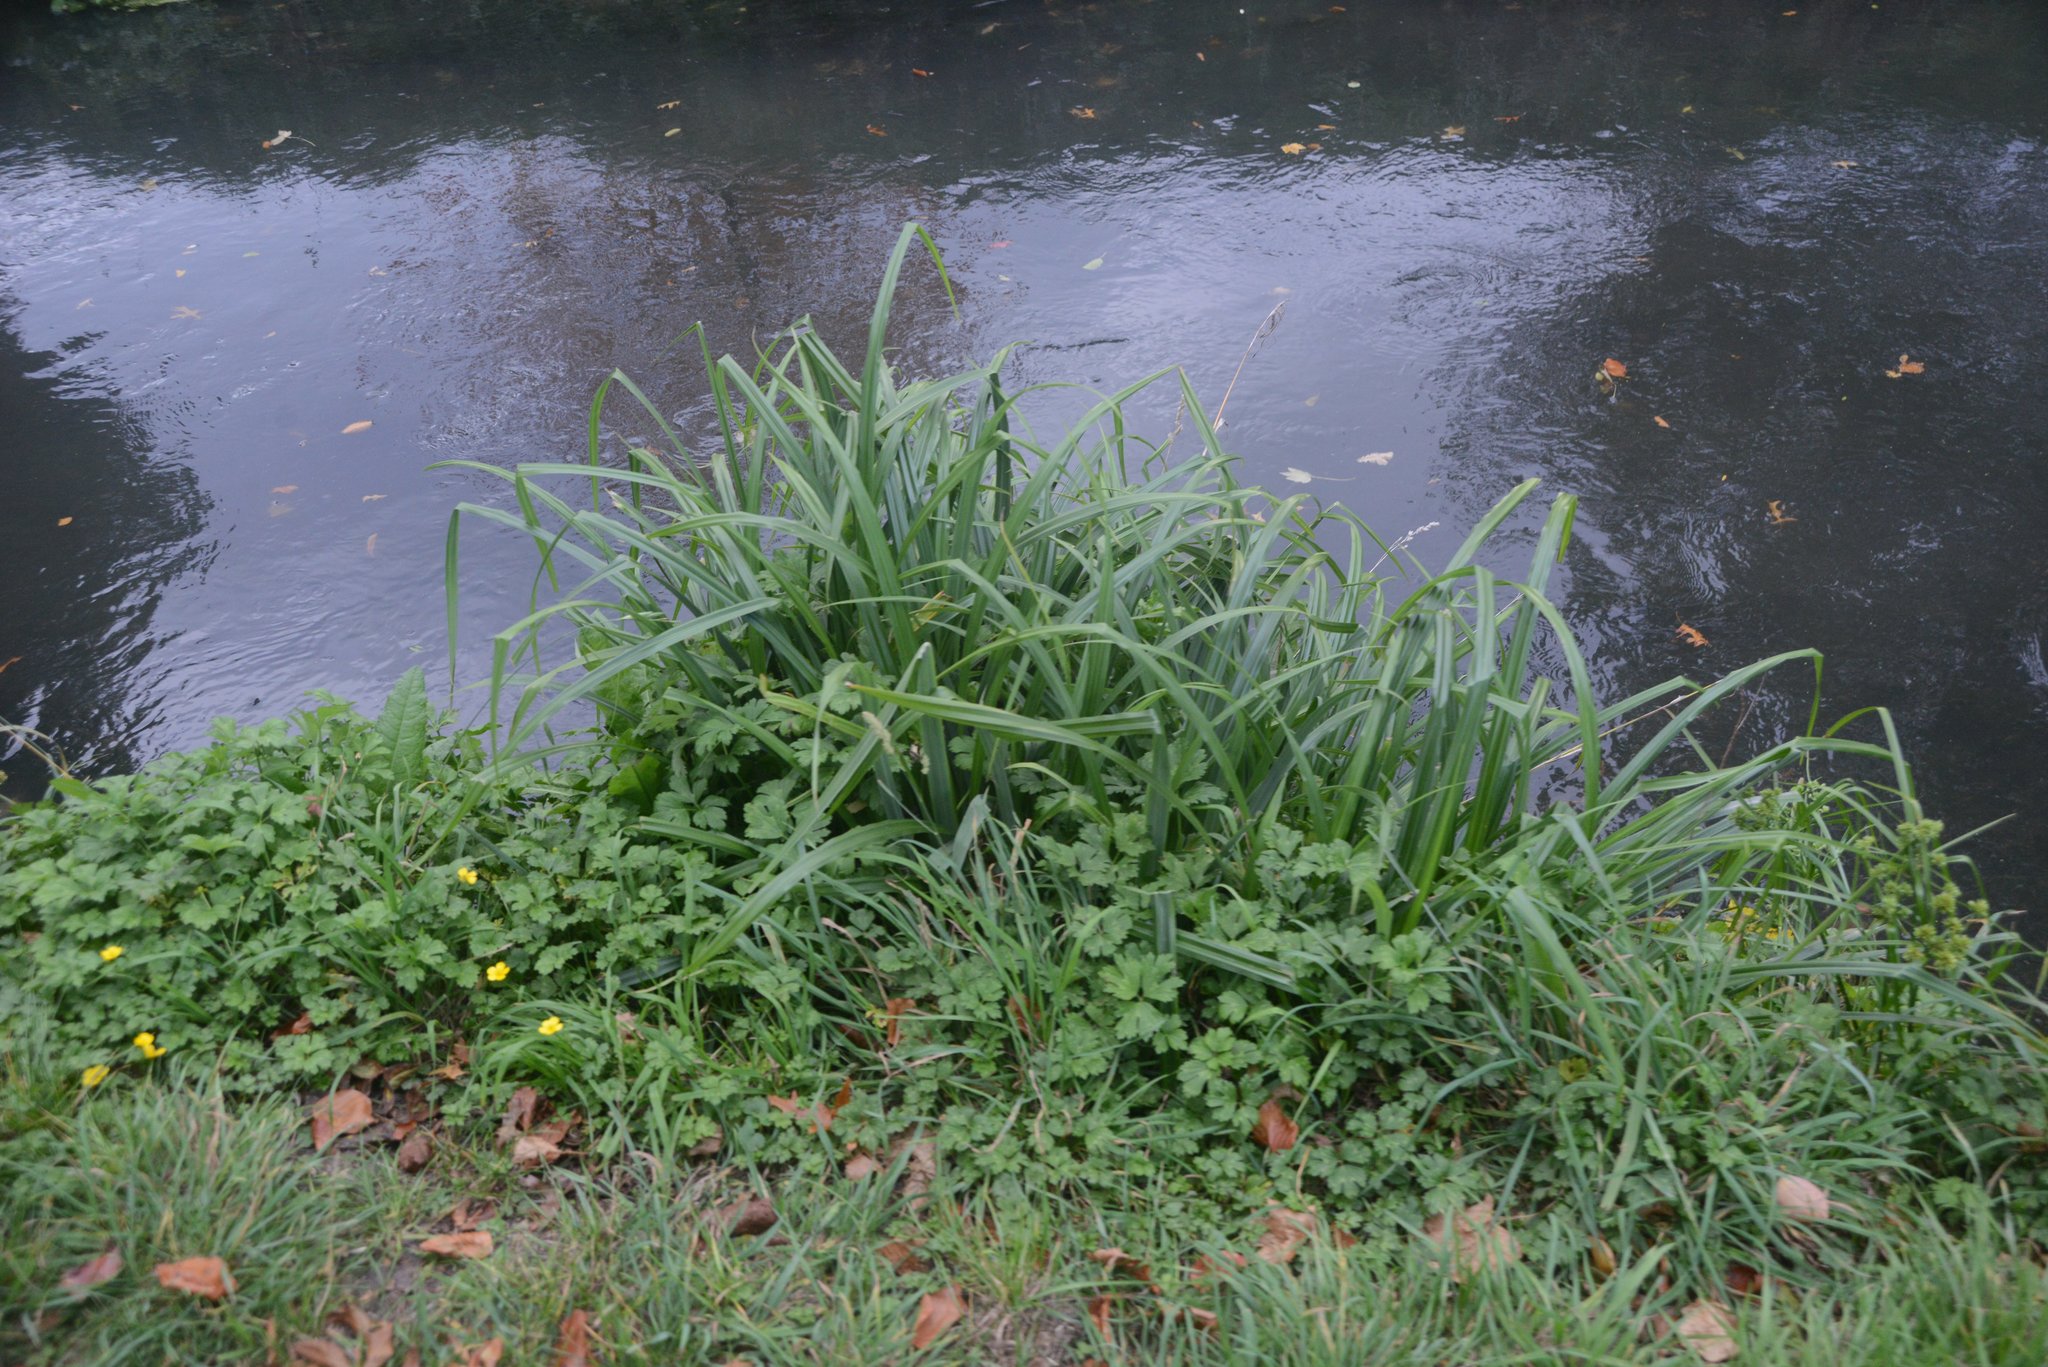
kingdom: Plantae
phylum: Tracheophyta
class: Liliopsida
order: Poales
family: Cyperaceae
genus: Carex
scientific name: Carex pendula
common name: Pendulous sedge
